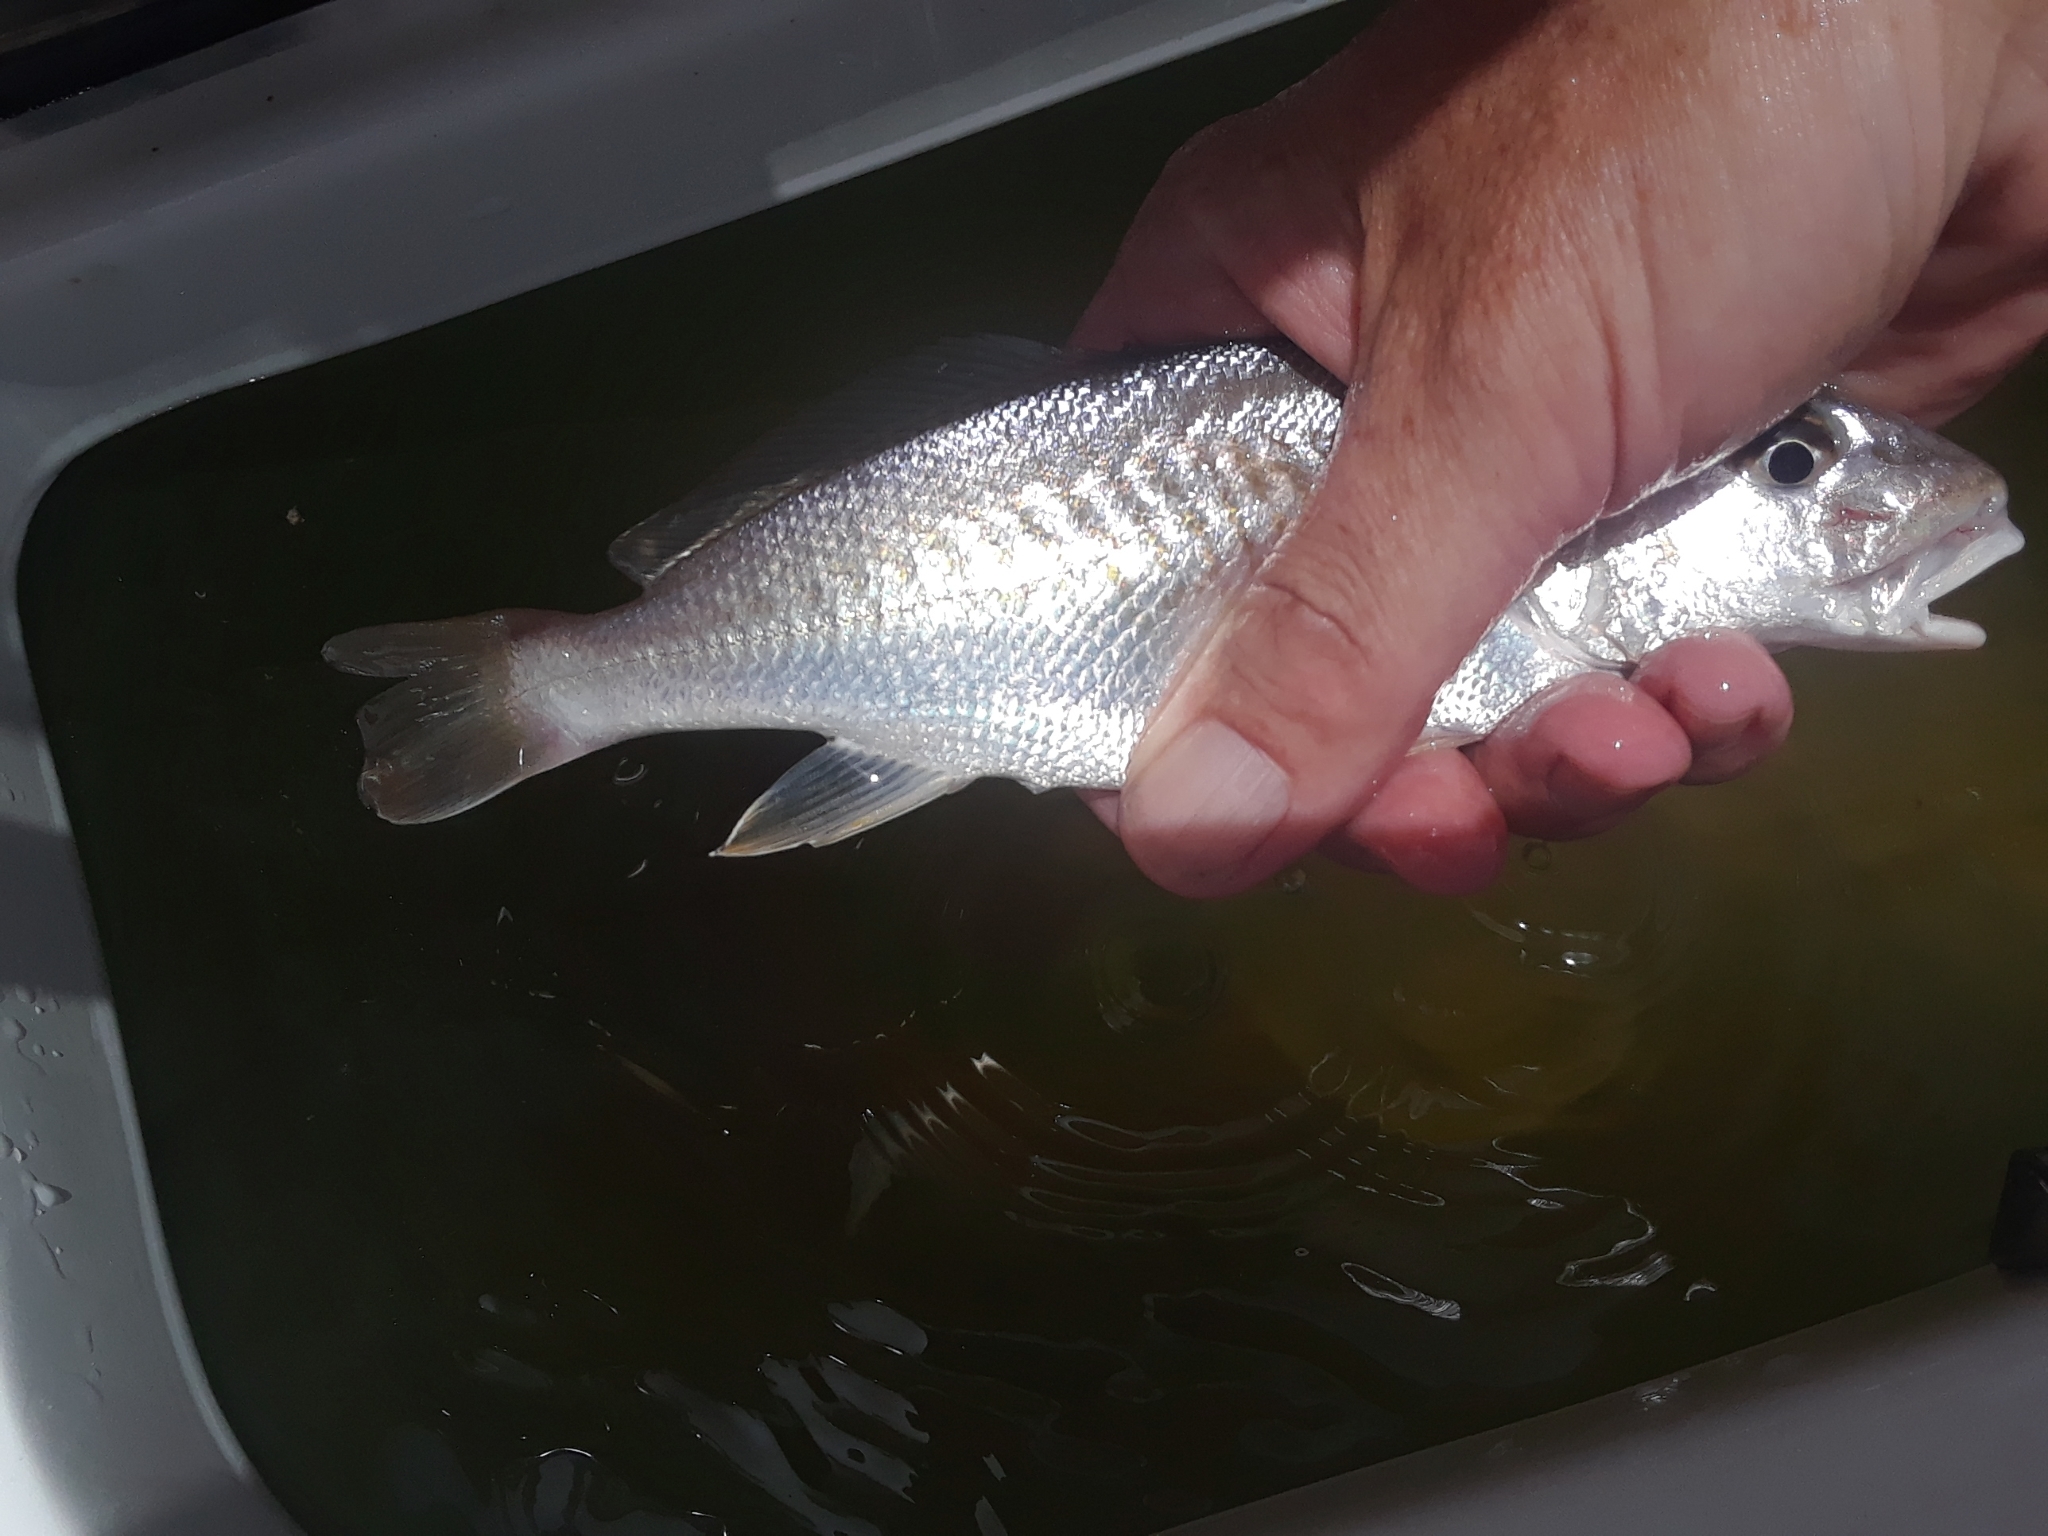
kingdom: Animalia
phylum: Chordata
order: Perciformes
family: Sciaenidae
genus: Micropogonias
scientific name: Micropogonias undulatus
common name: Atlantic croaker
